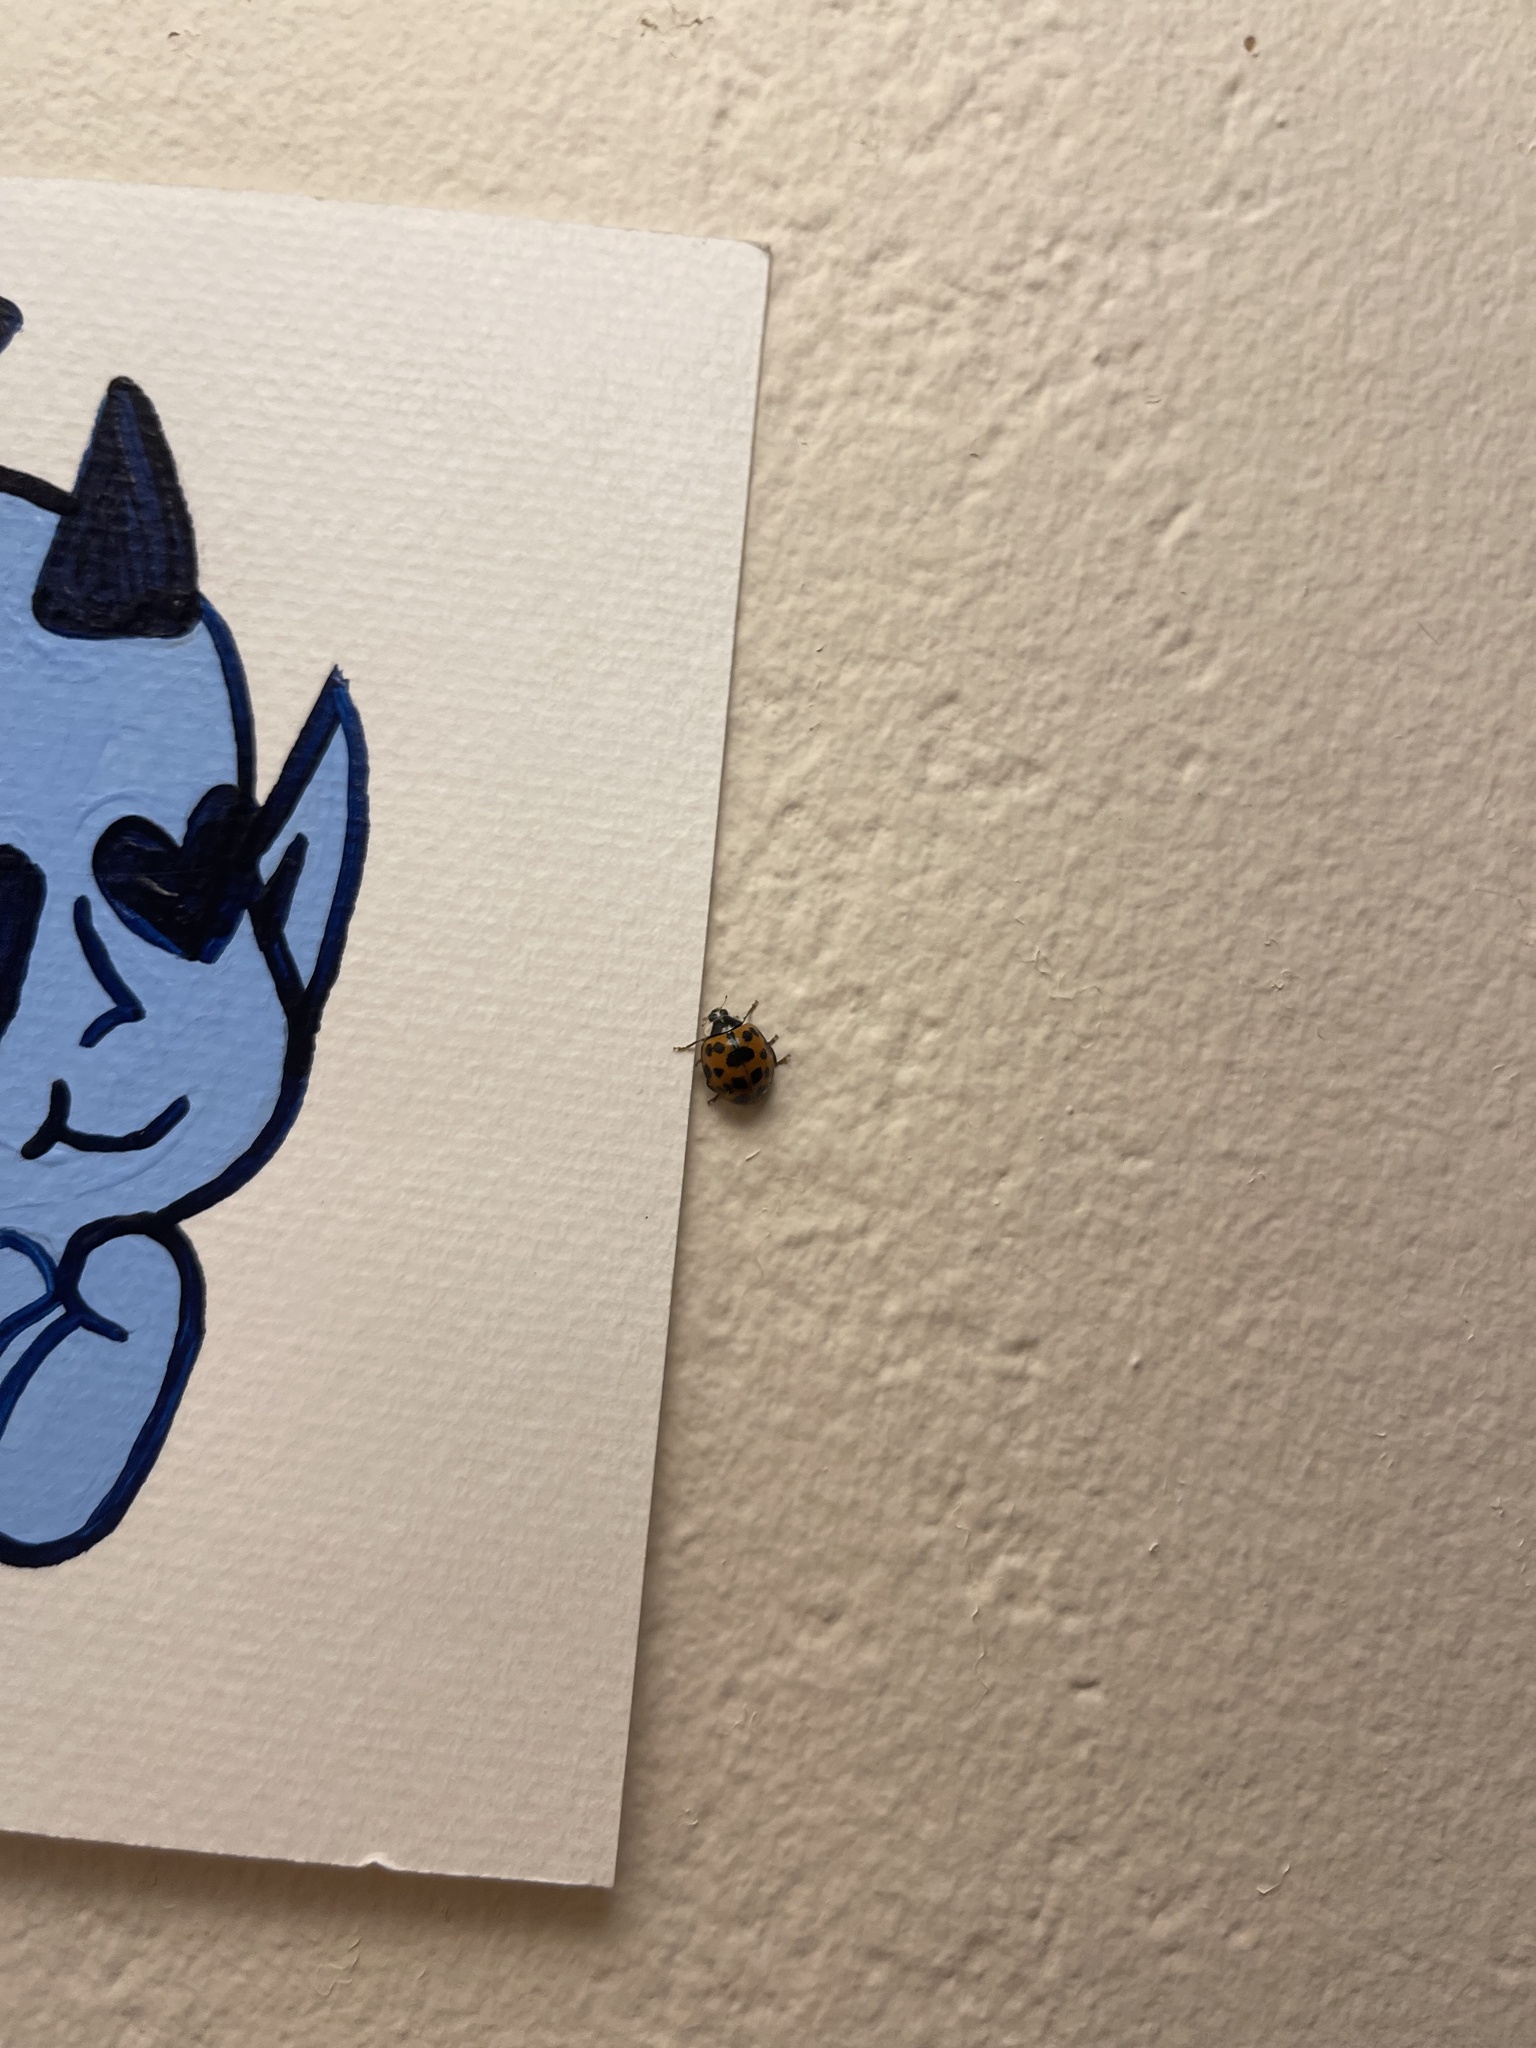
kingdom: Animalia
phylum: Arthropoda
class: Insecta
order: Coleoptera
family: Coccinellidae
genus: Harmonia
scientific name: Harmonia axyridis
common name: Harlequin ladybird
